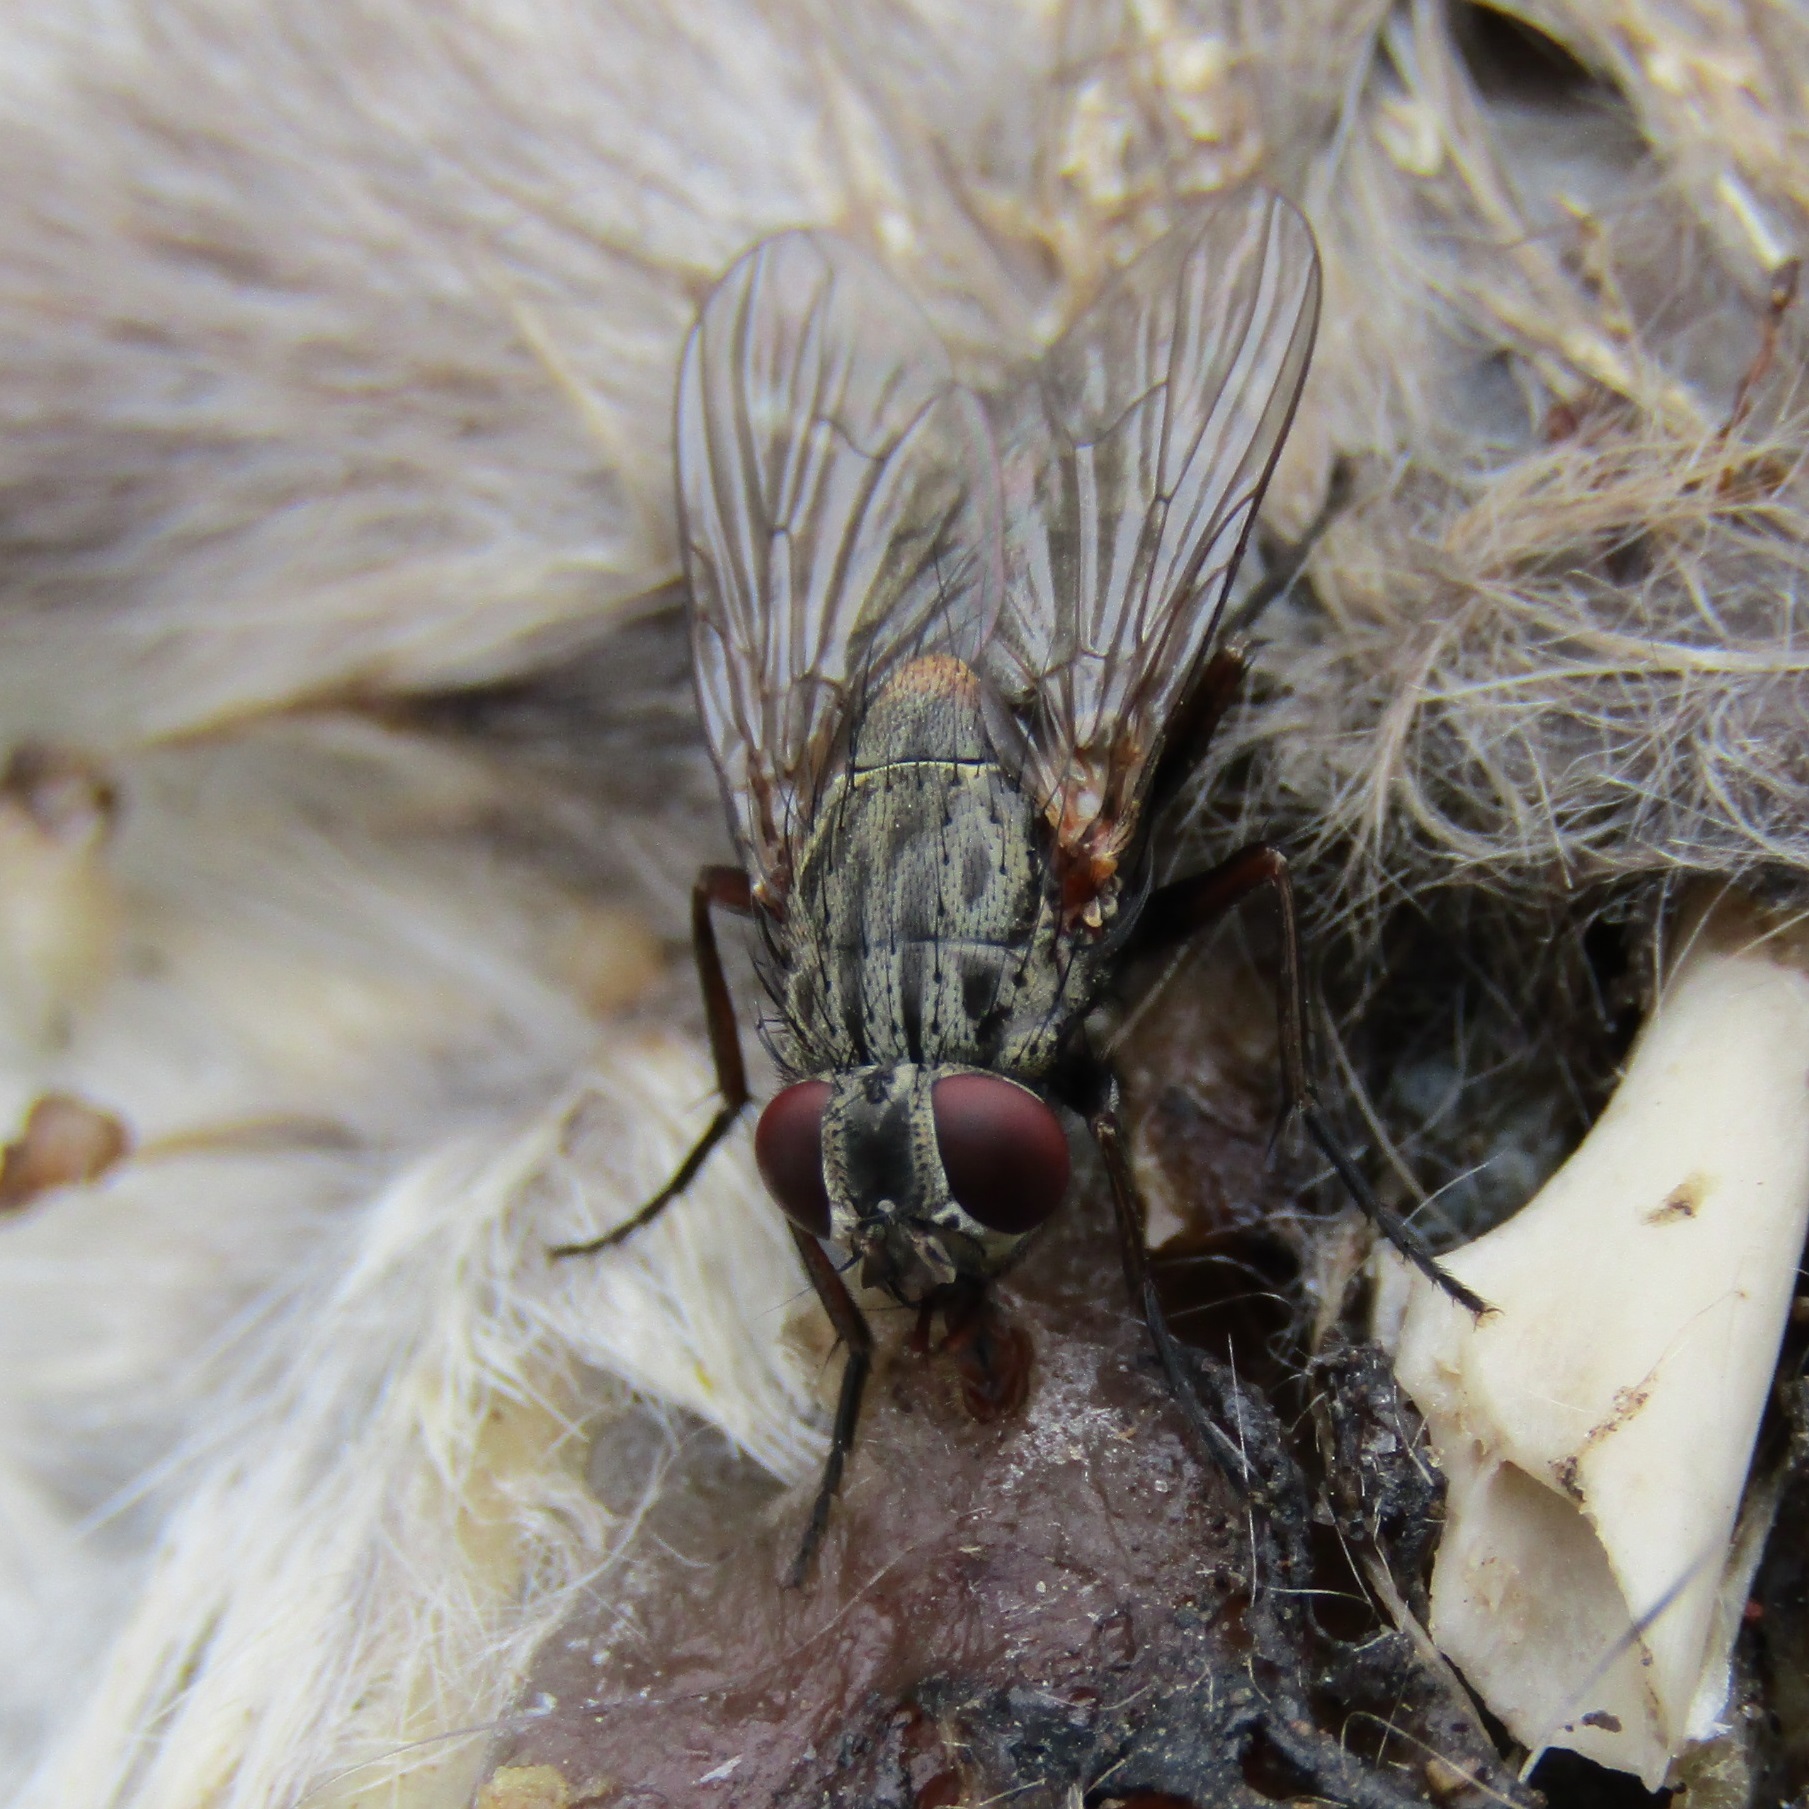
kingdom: Animalia
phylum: Arthropoda
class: Insecta
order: Diptera
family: Muscidae
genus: Muscina
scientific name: Muscina stabulans
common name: False stable fly
